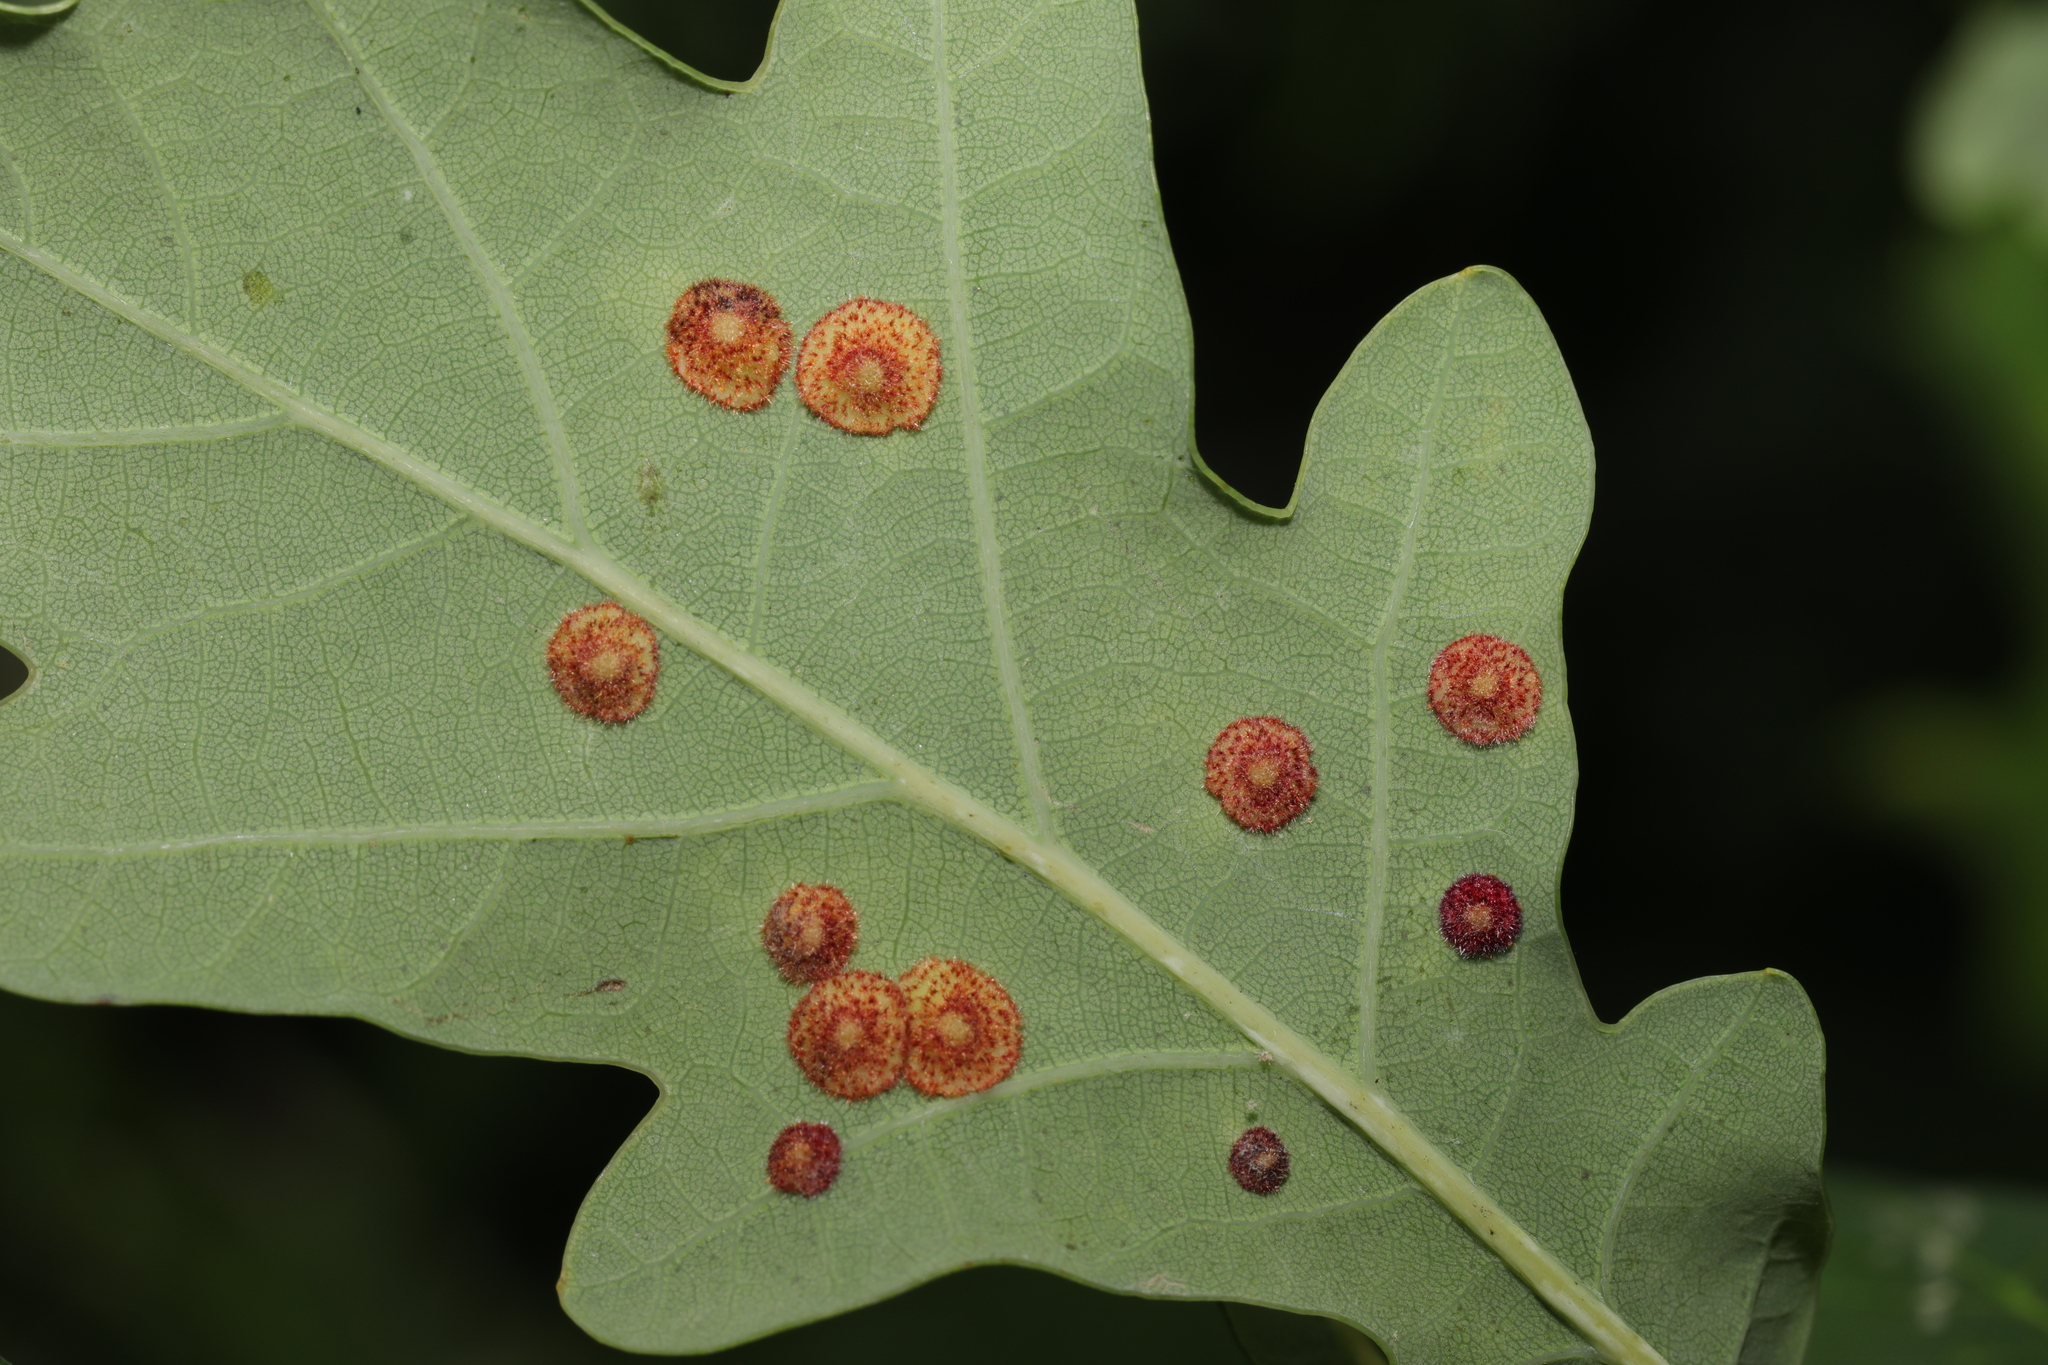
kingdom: Animalia
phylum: Arthropoda
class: Insecta
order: Hymenoptera
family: Cynipidae
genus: Neuroterus
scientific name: Neuroterus quercusbaccarum
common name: Common spangle gall
